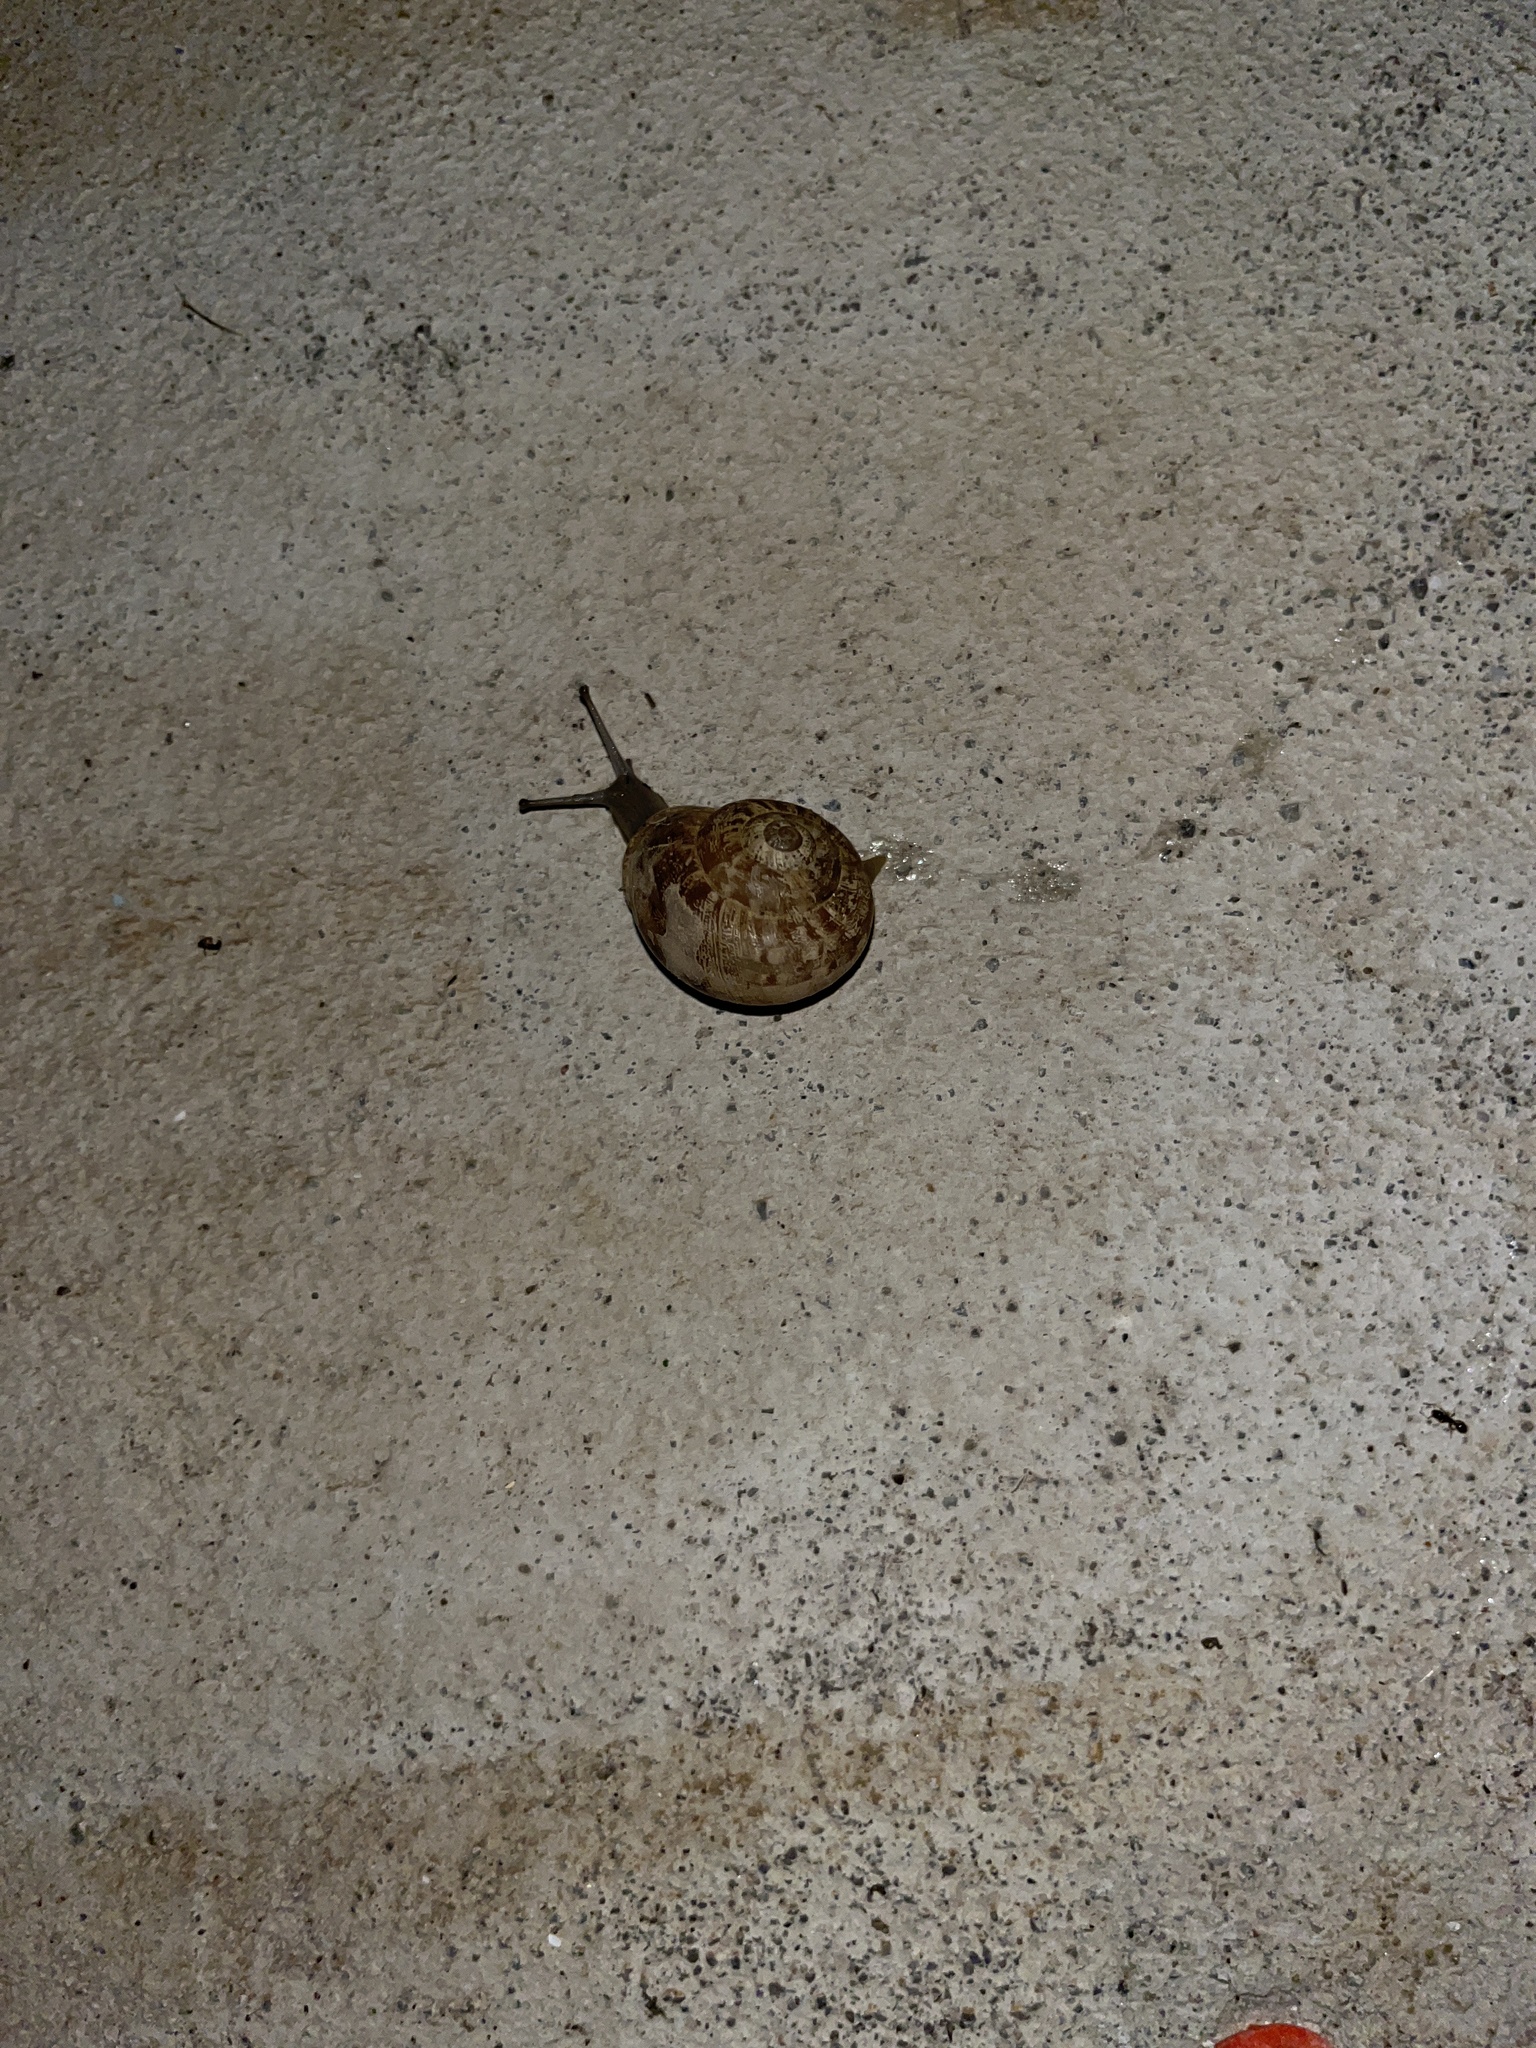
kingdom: Animalia
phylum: Mollusca
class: Gastropoda
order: Stylommatophora
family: Helicidae
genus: Eobania
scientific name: Eobania vermiculata
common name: Chocolateband snail
